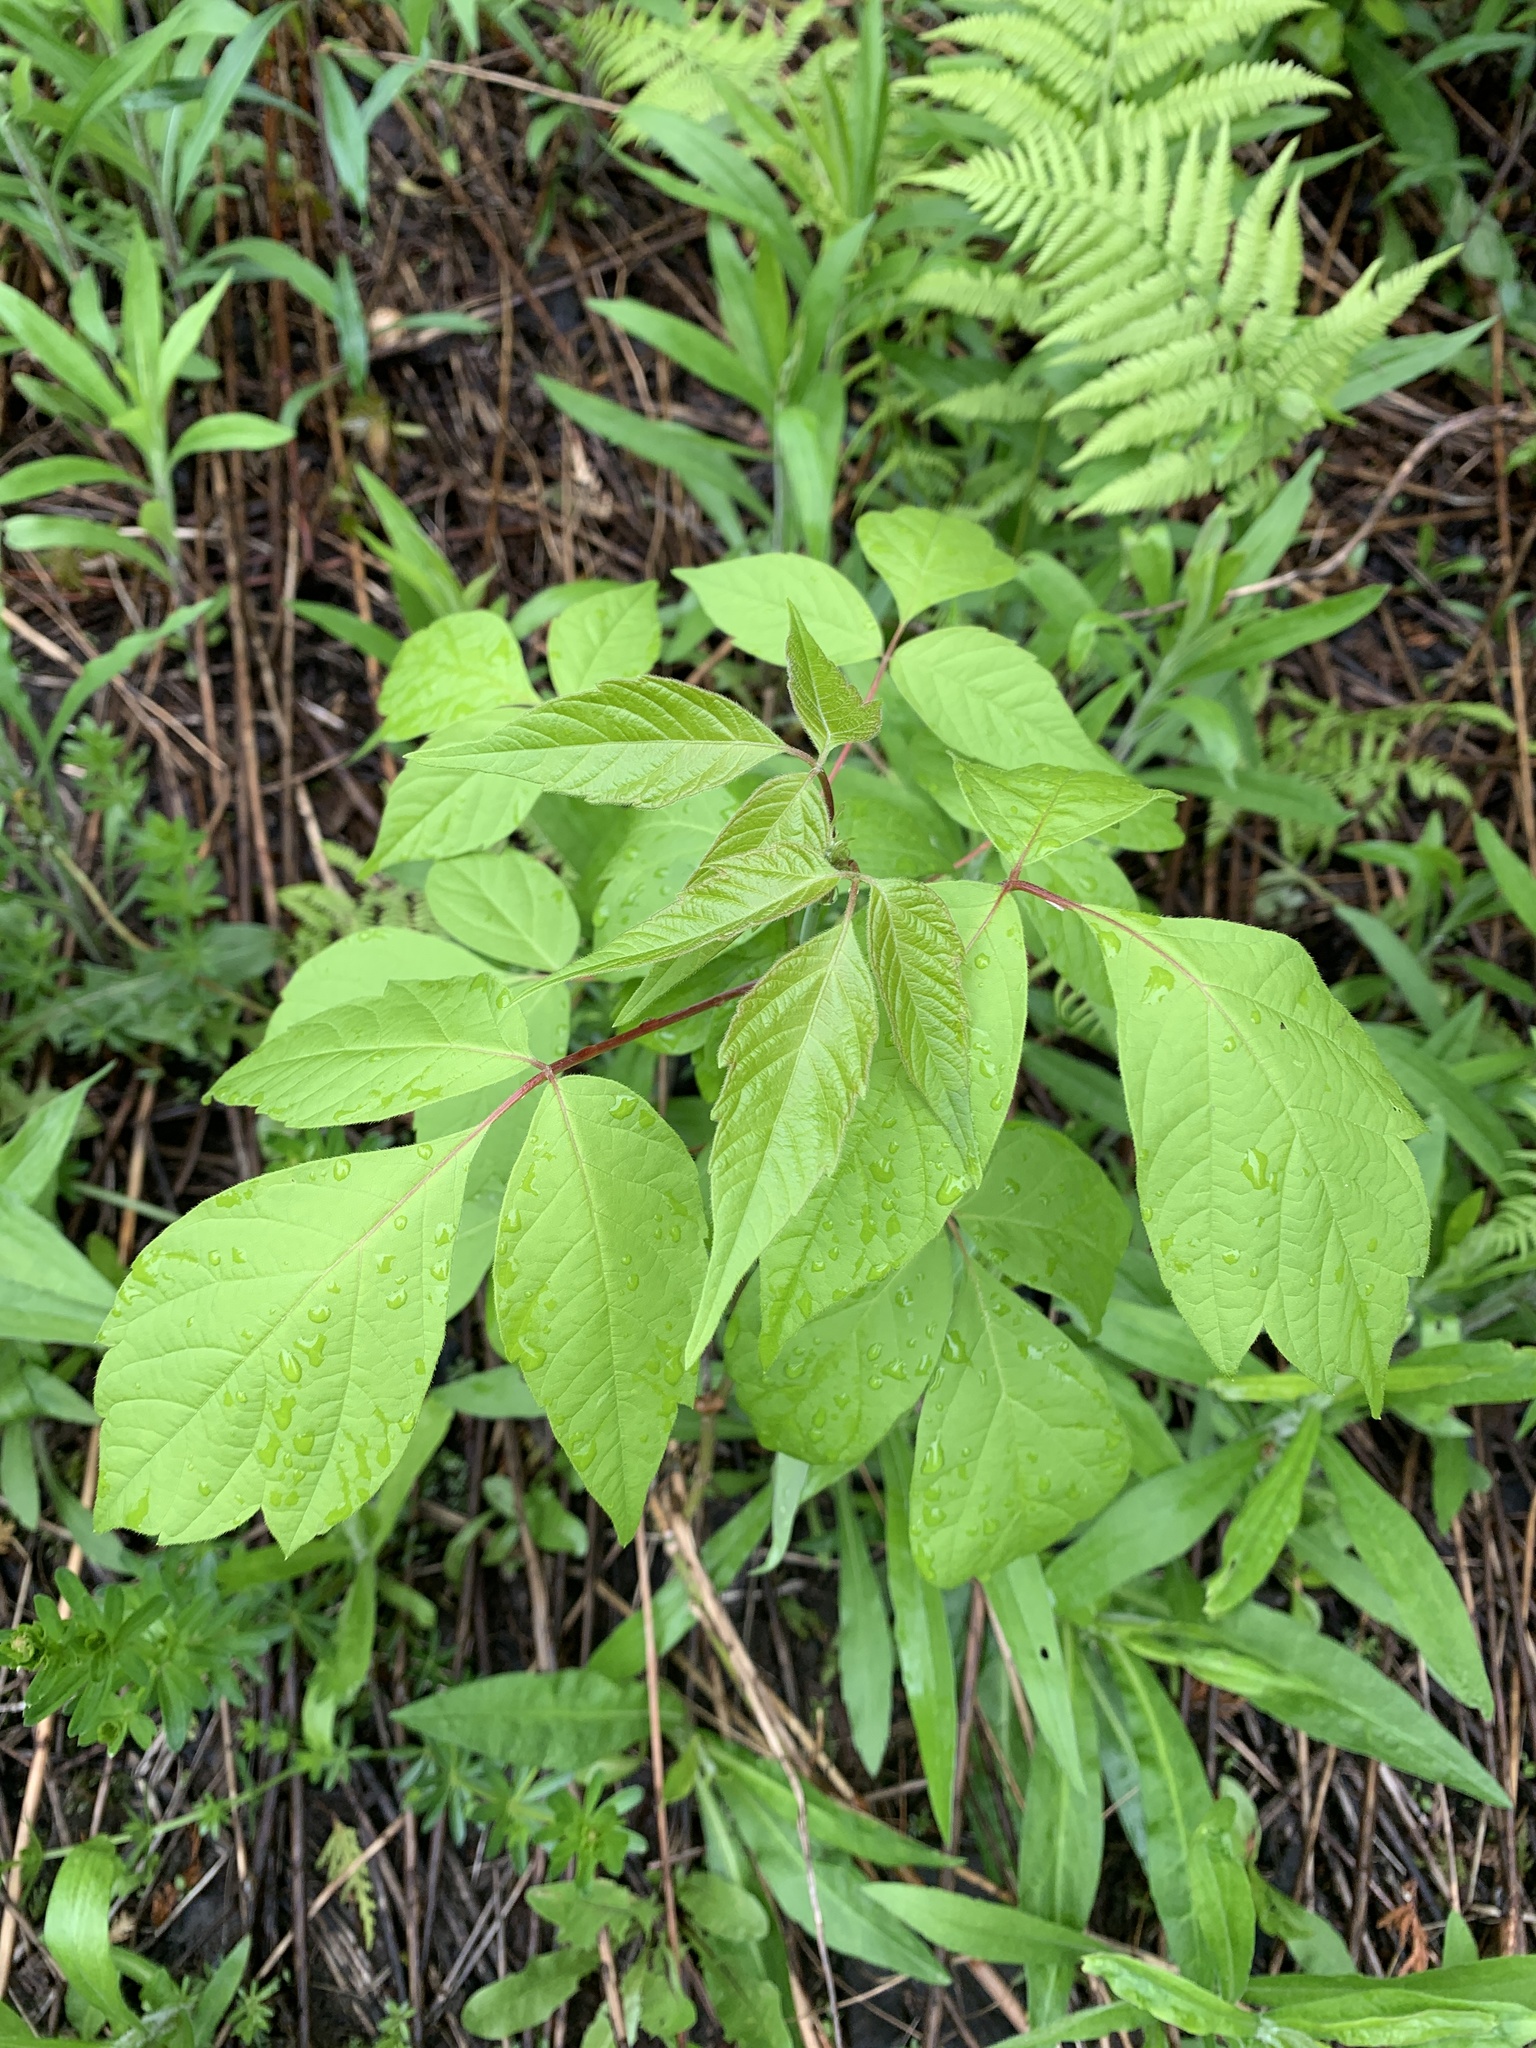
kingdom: Plantae
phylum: Tracheophyta
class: Magnoliopsida
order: Sapindales
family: Sapindaceae
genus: Acer
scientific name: Acer negundo
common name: Ashleaf maple
